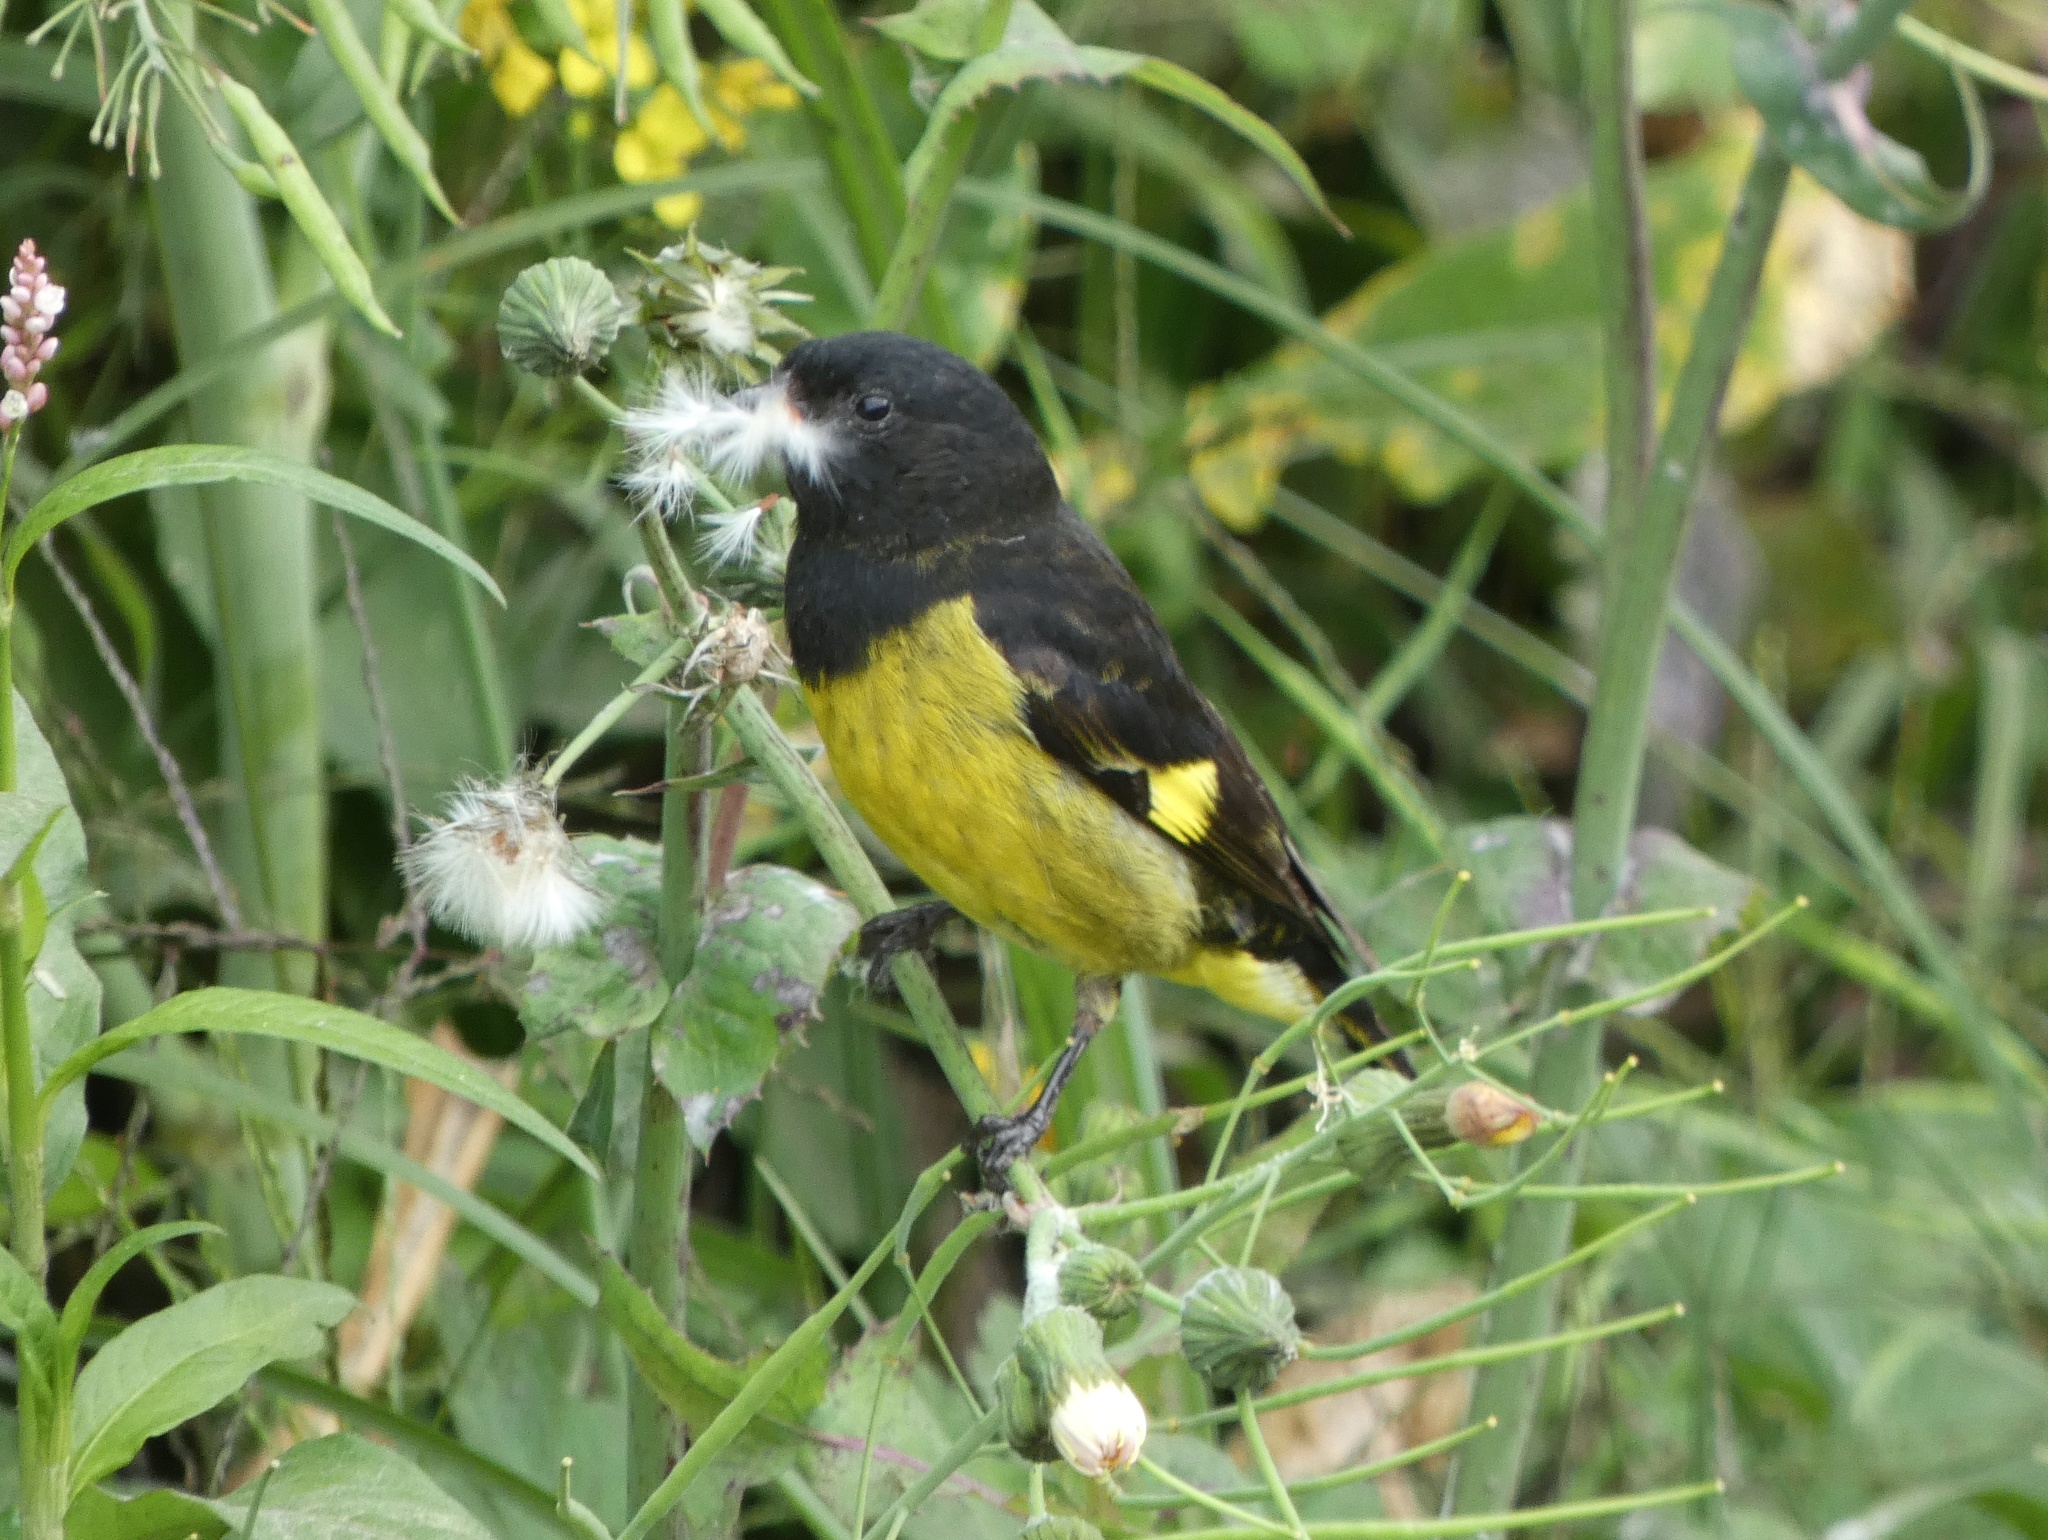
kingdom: Animalia
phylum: Chordata
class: Aves
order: Passeriformes
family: Fringillidae
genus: Spinus
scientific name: Spinus xanthogastrus
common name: Yellow-bellied siskin
